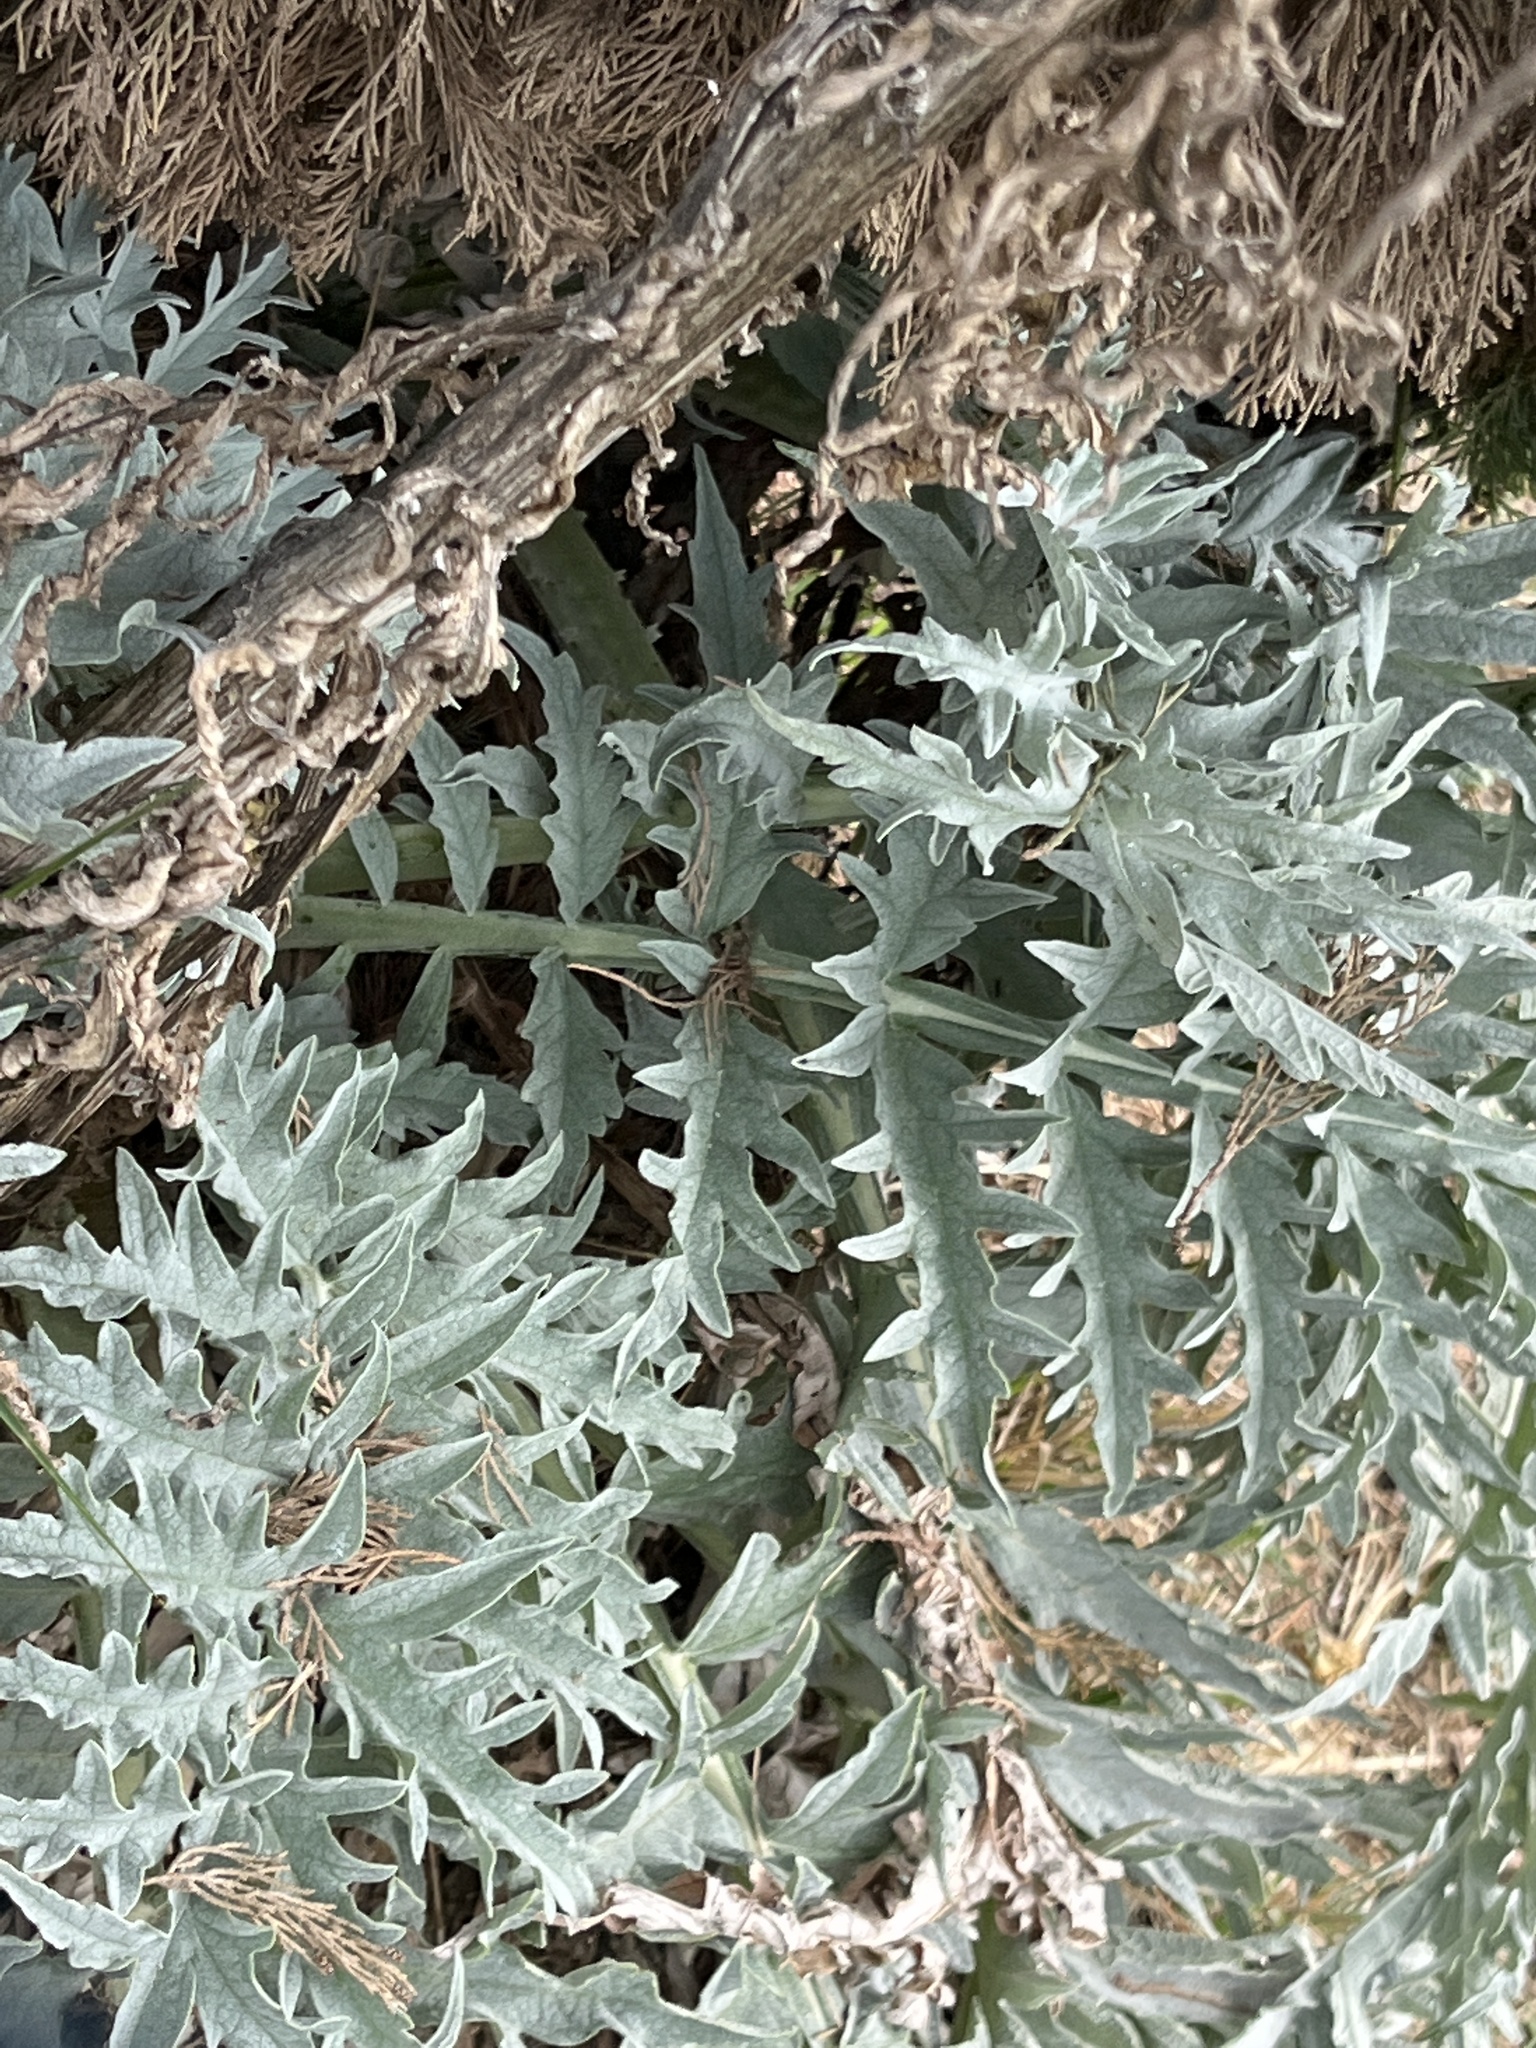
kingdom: Plantae
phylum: Tracheophyta
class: Magnoliopsida
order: Asterales
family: Asteraceae
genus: Cynara
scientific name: Cynara cardunculus
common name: Globe artichoke
